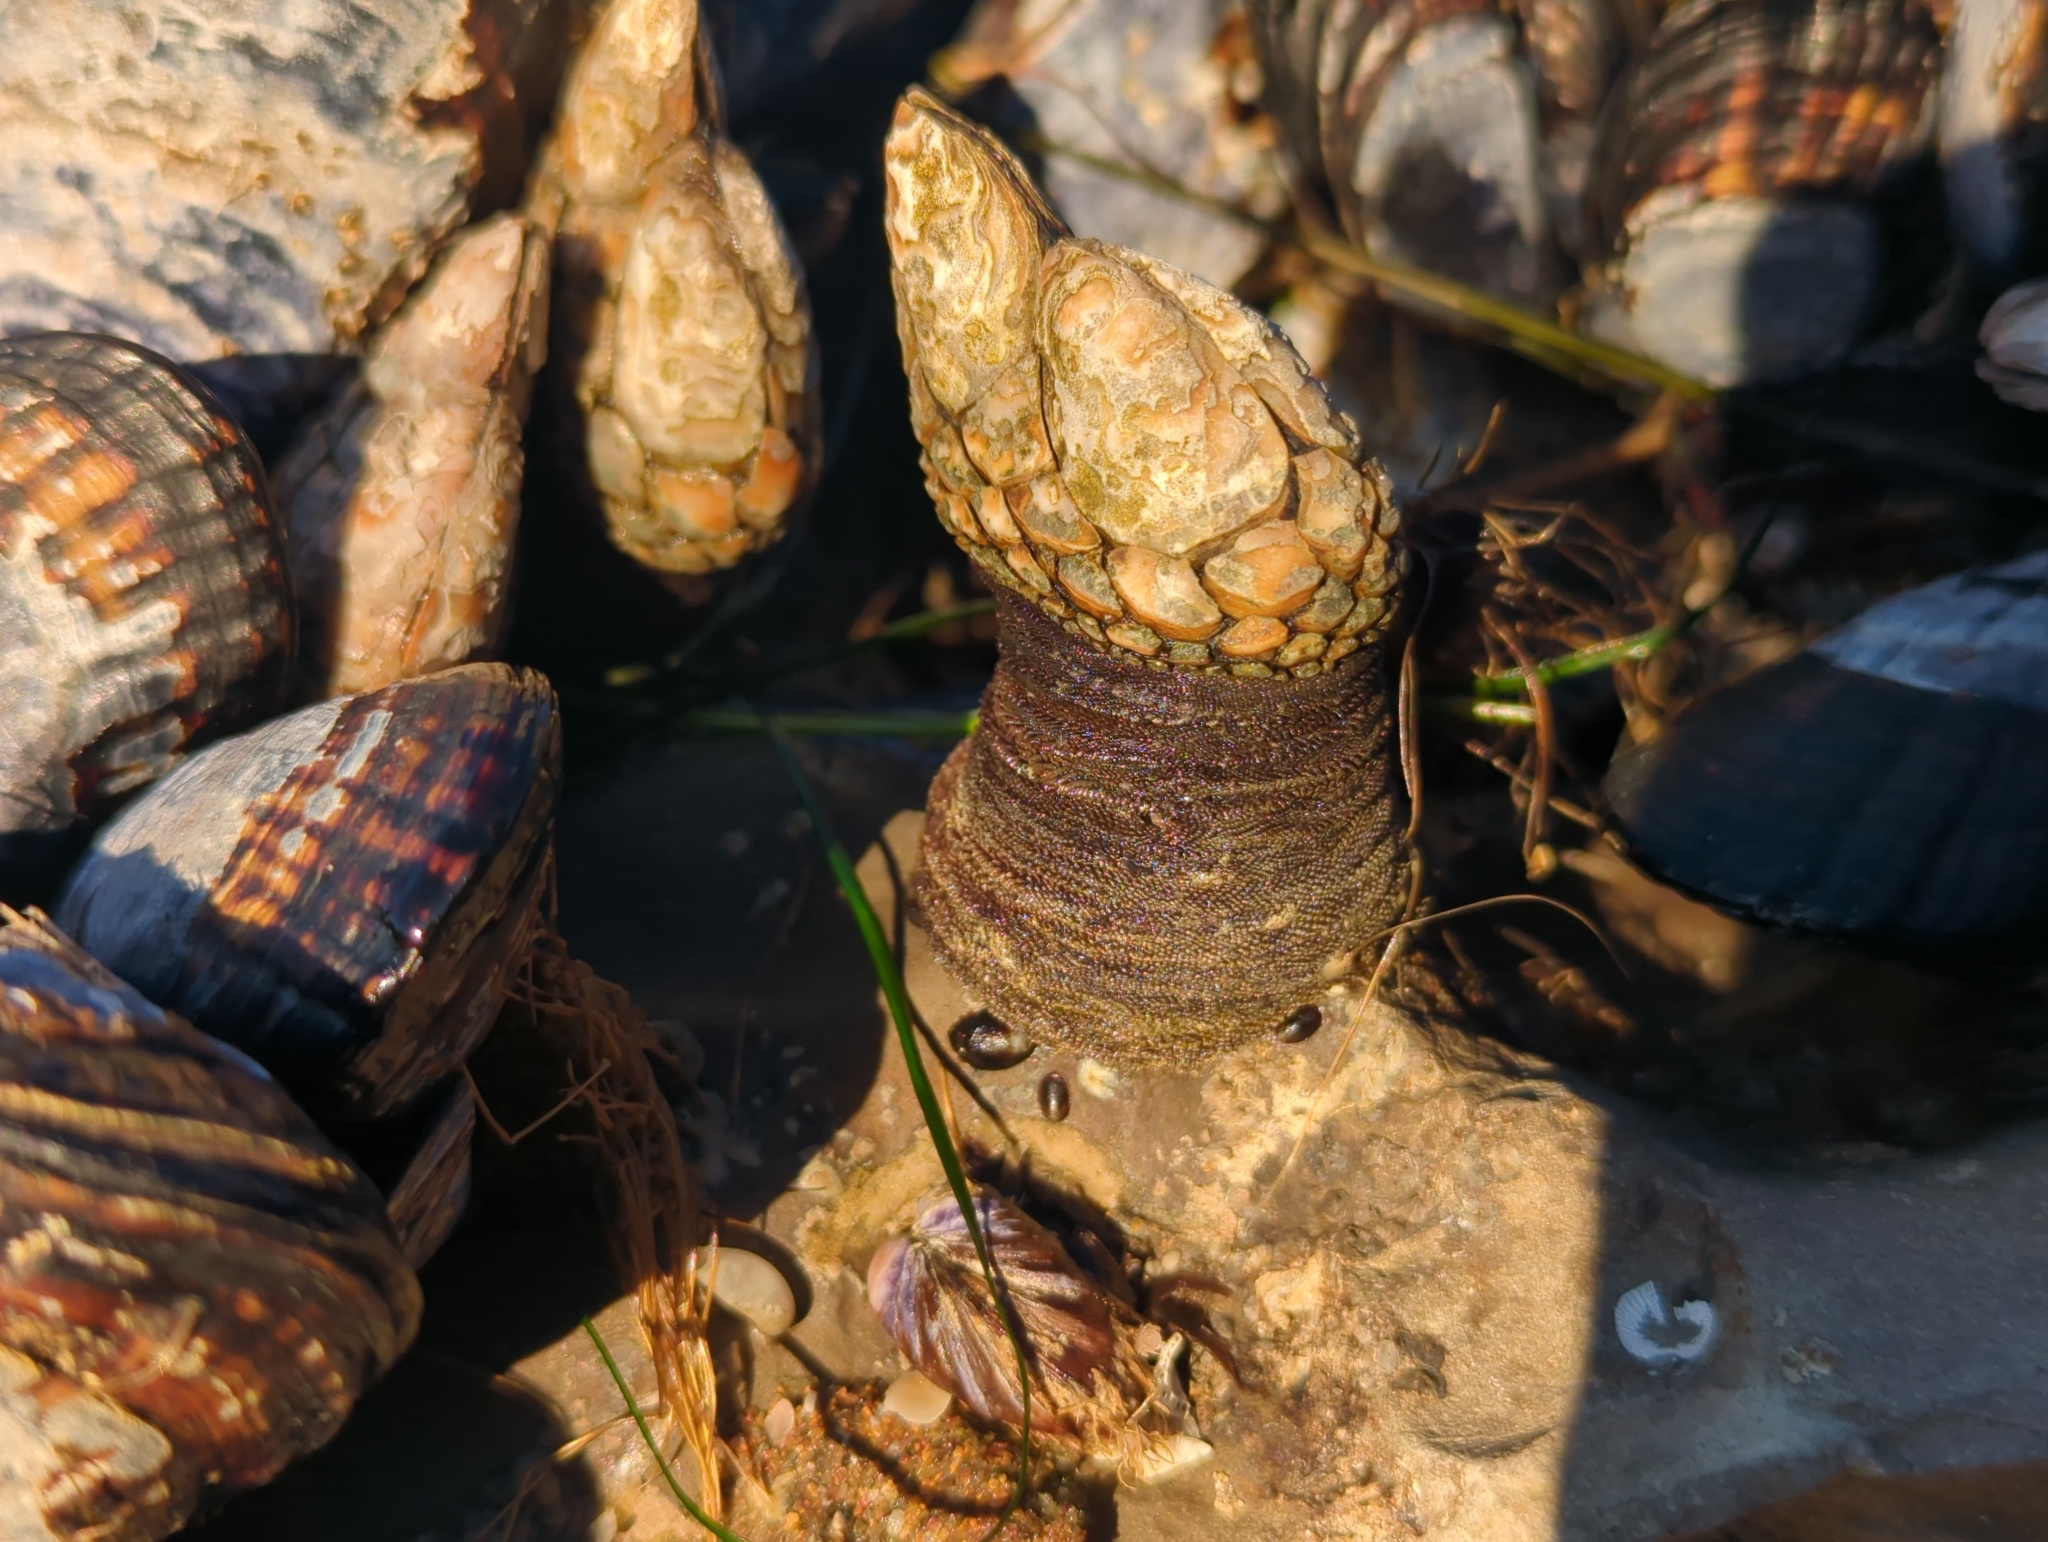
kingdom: Animalia
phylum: Arthropoda
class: Maxillopoda
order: Pedunculata
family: Pollicipedidae
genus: Pollicipes
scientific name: Pollicipes polymerus
